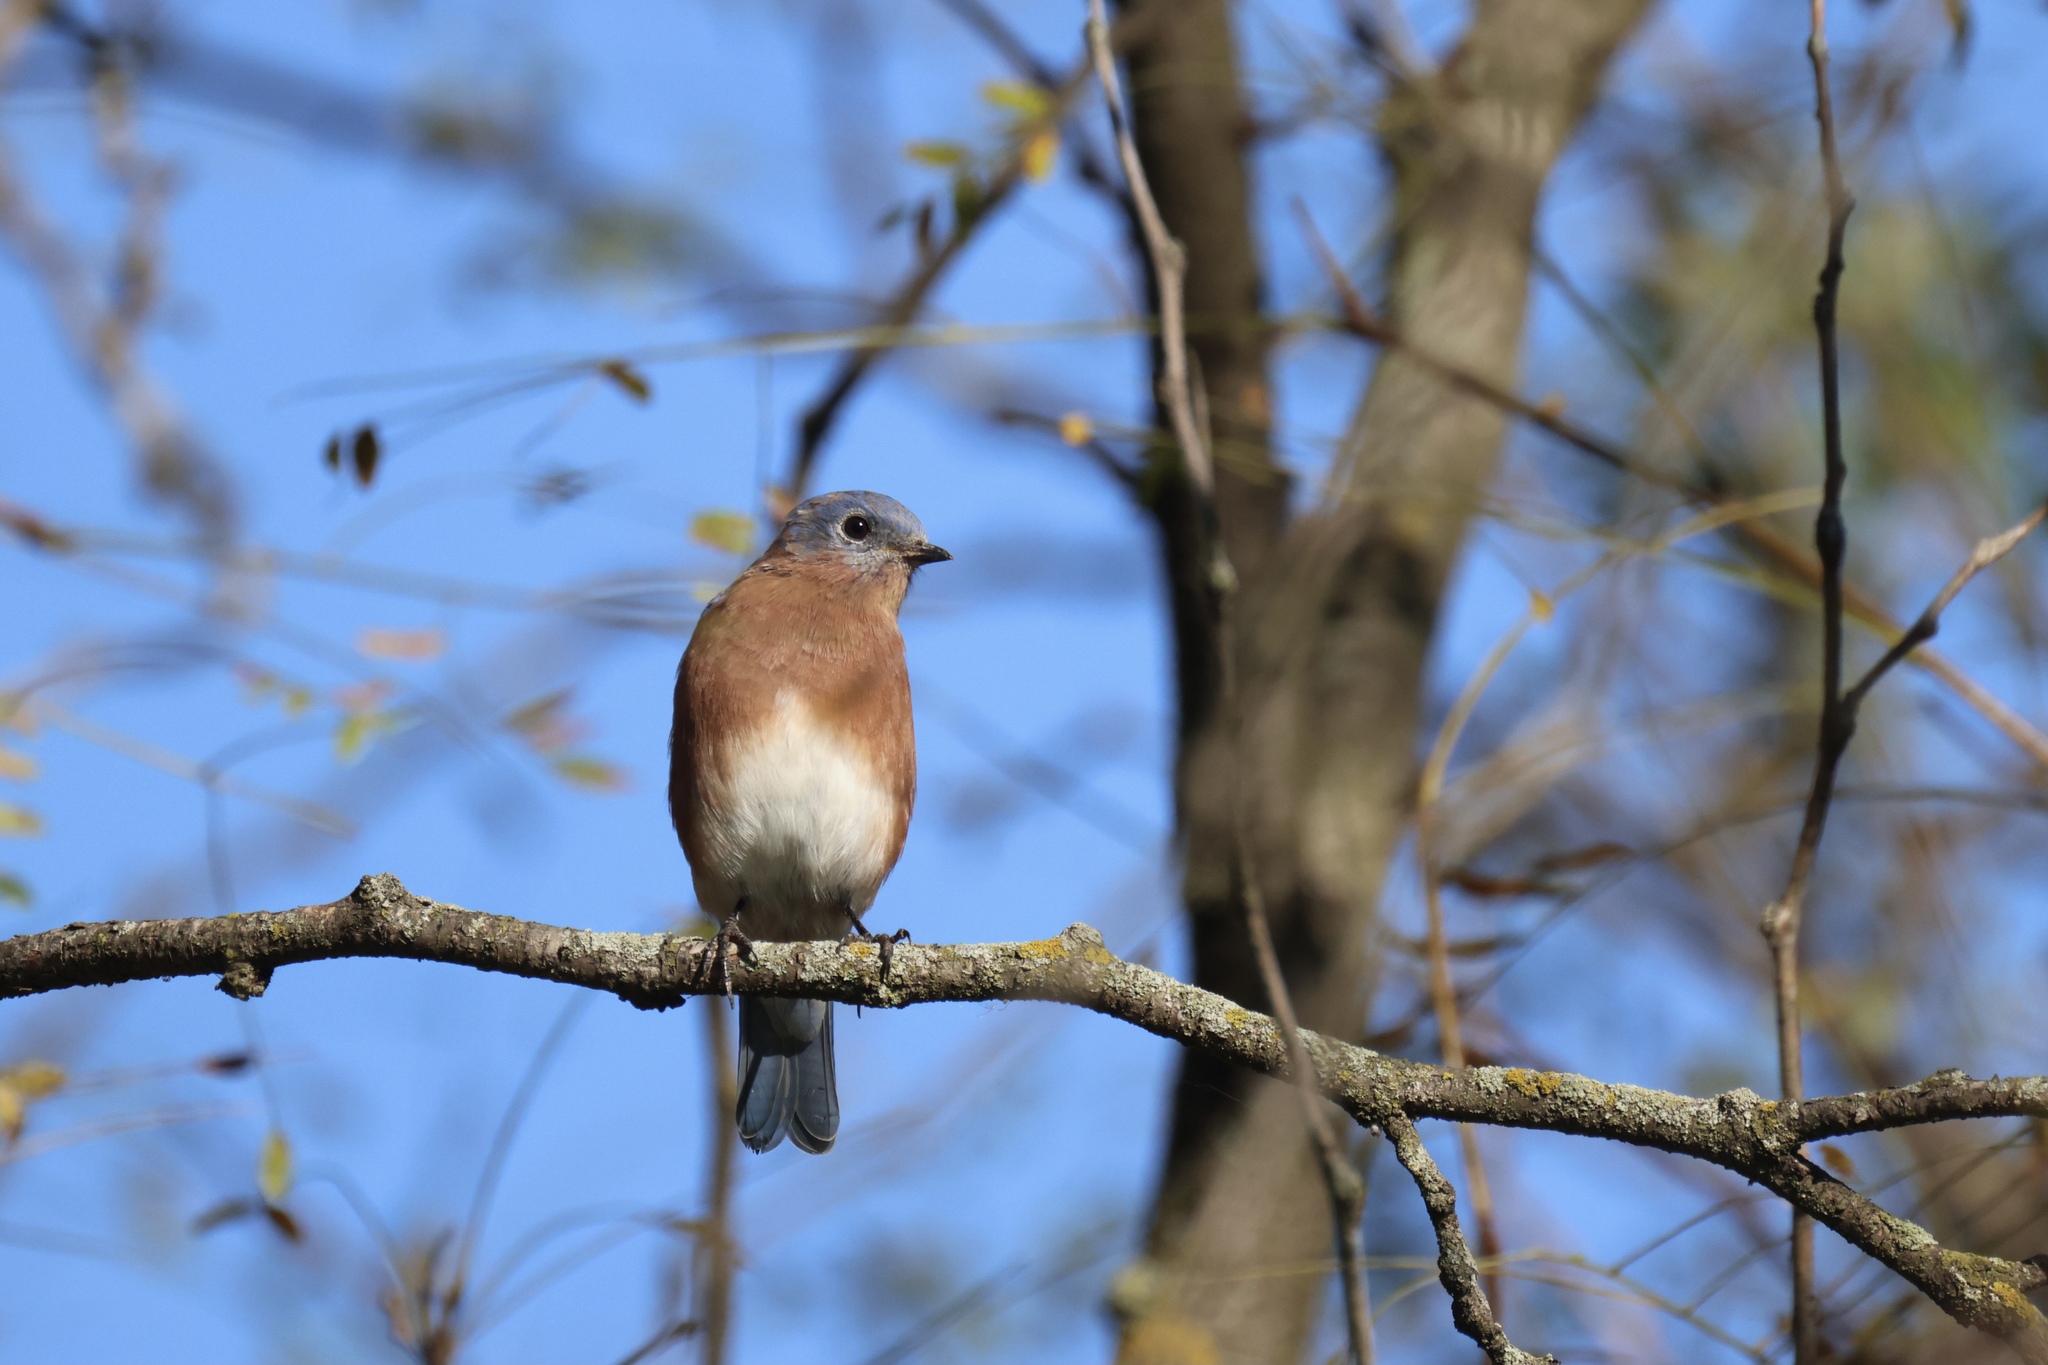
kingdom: Animalia
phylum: Chordata
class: Aves
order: Passeriformes
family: Turdidae
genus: Sialia
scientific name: Sialia sialis
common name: Eastern bluebird
